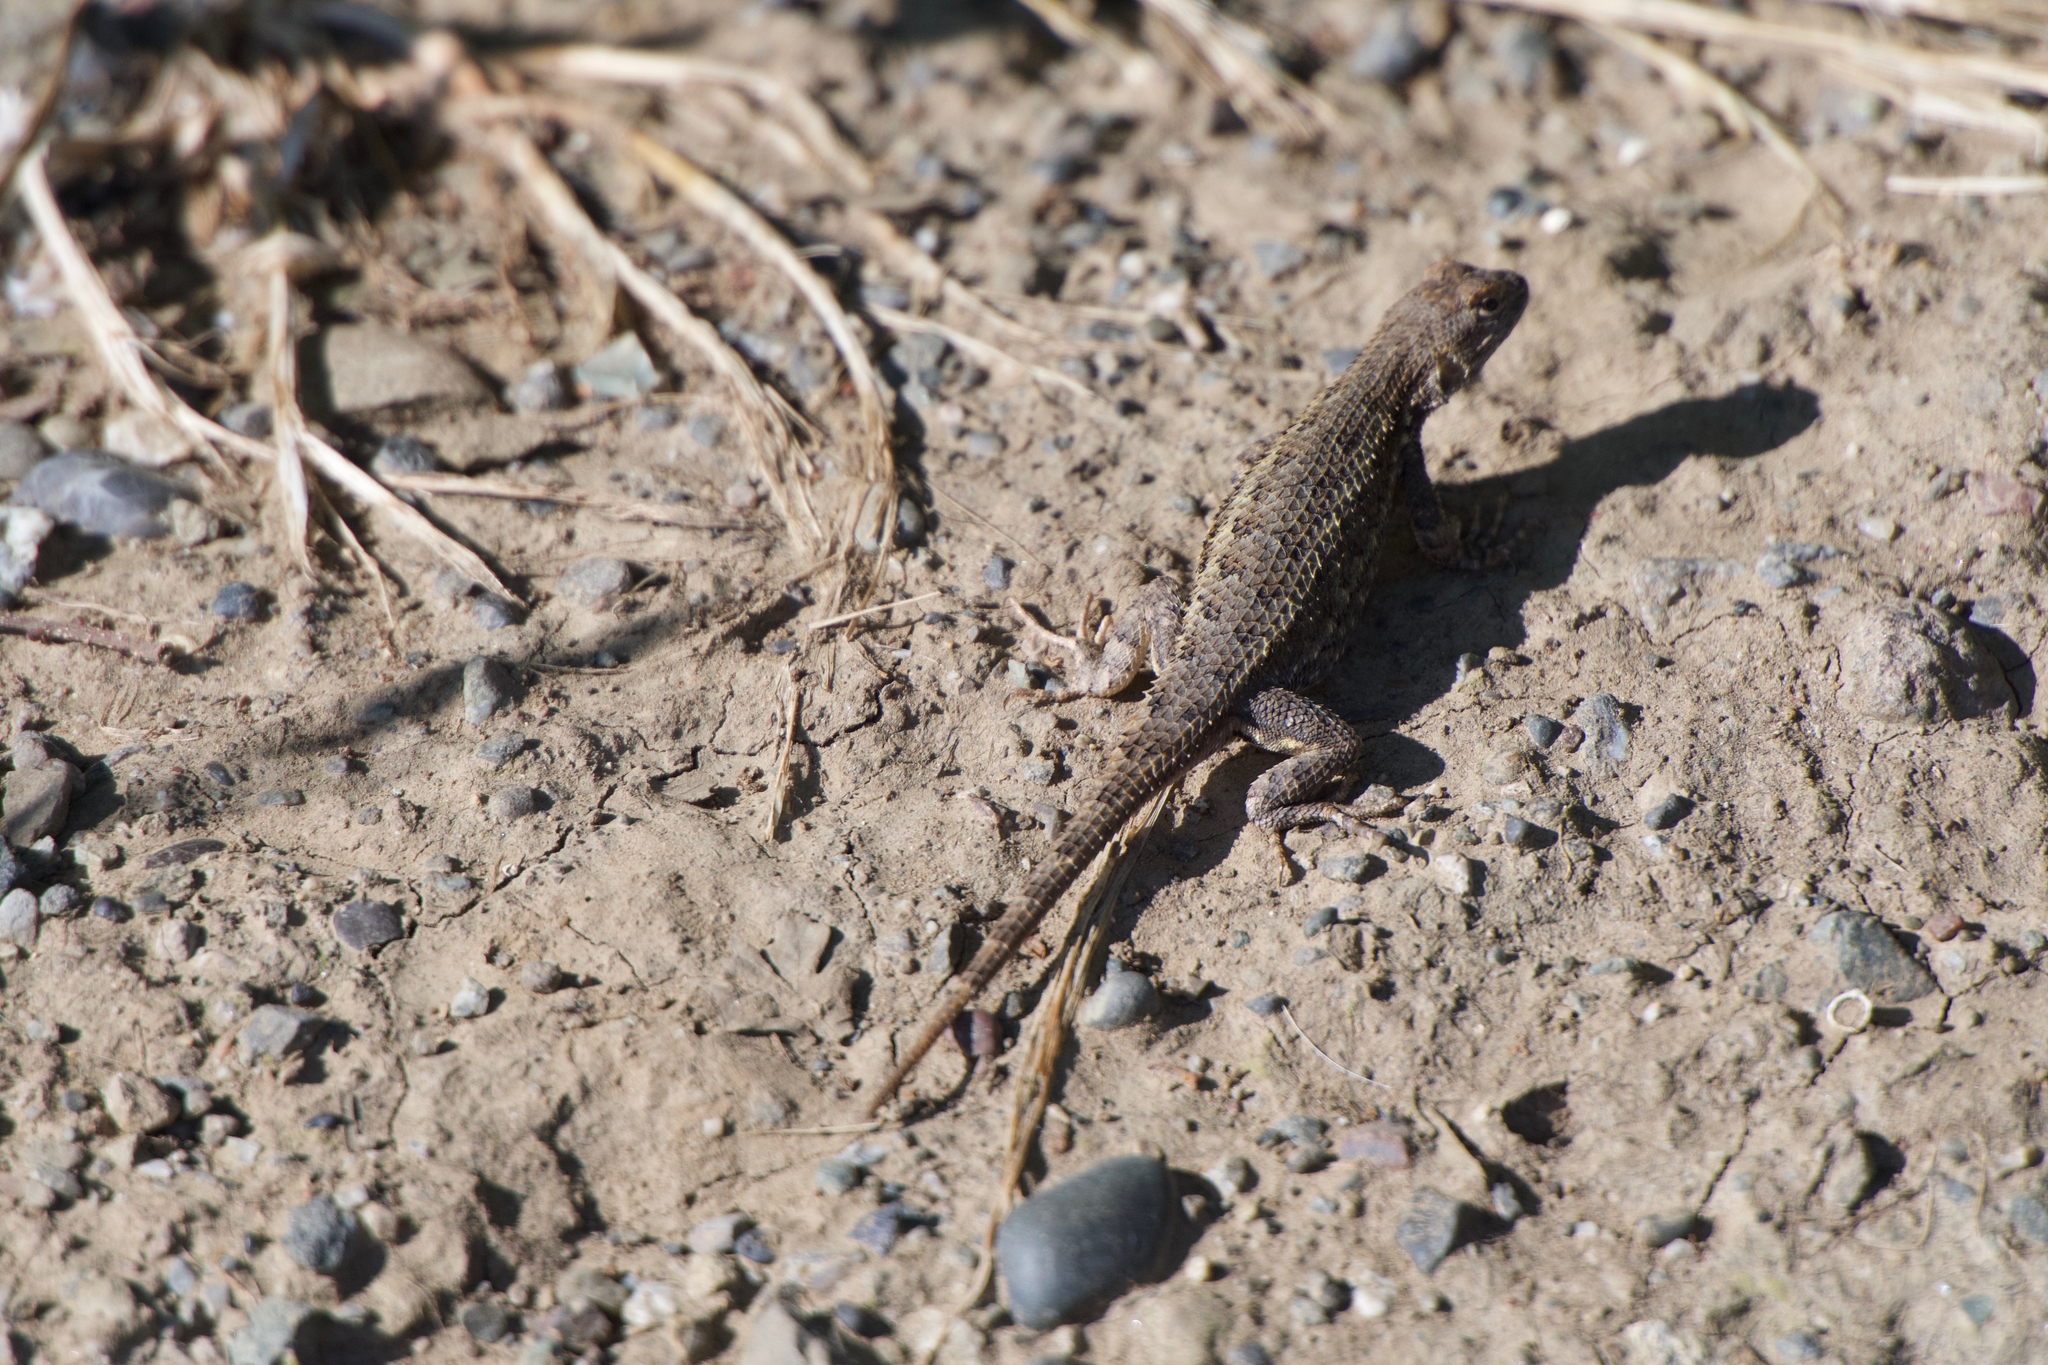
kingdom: Animalia
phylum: Chordata
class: Squamata
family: Phrynosomatidae
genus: Sceloporus
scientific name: Sceloporus occidentalis
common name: Western fence lizard
